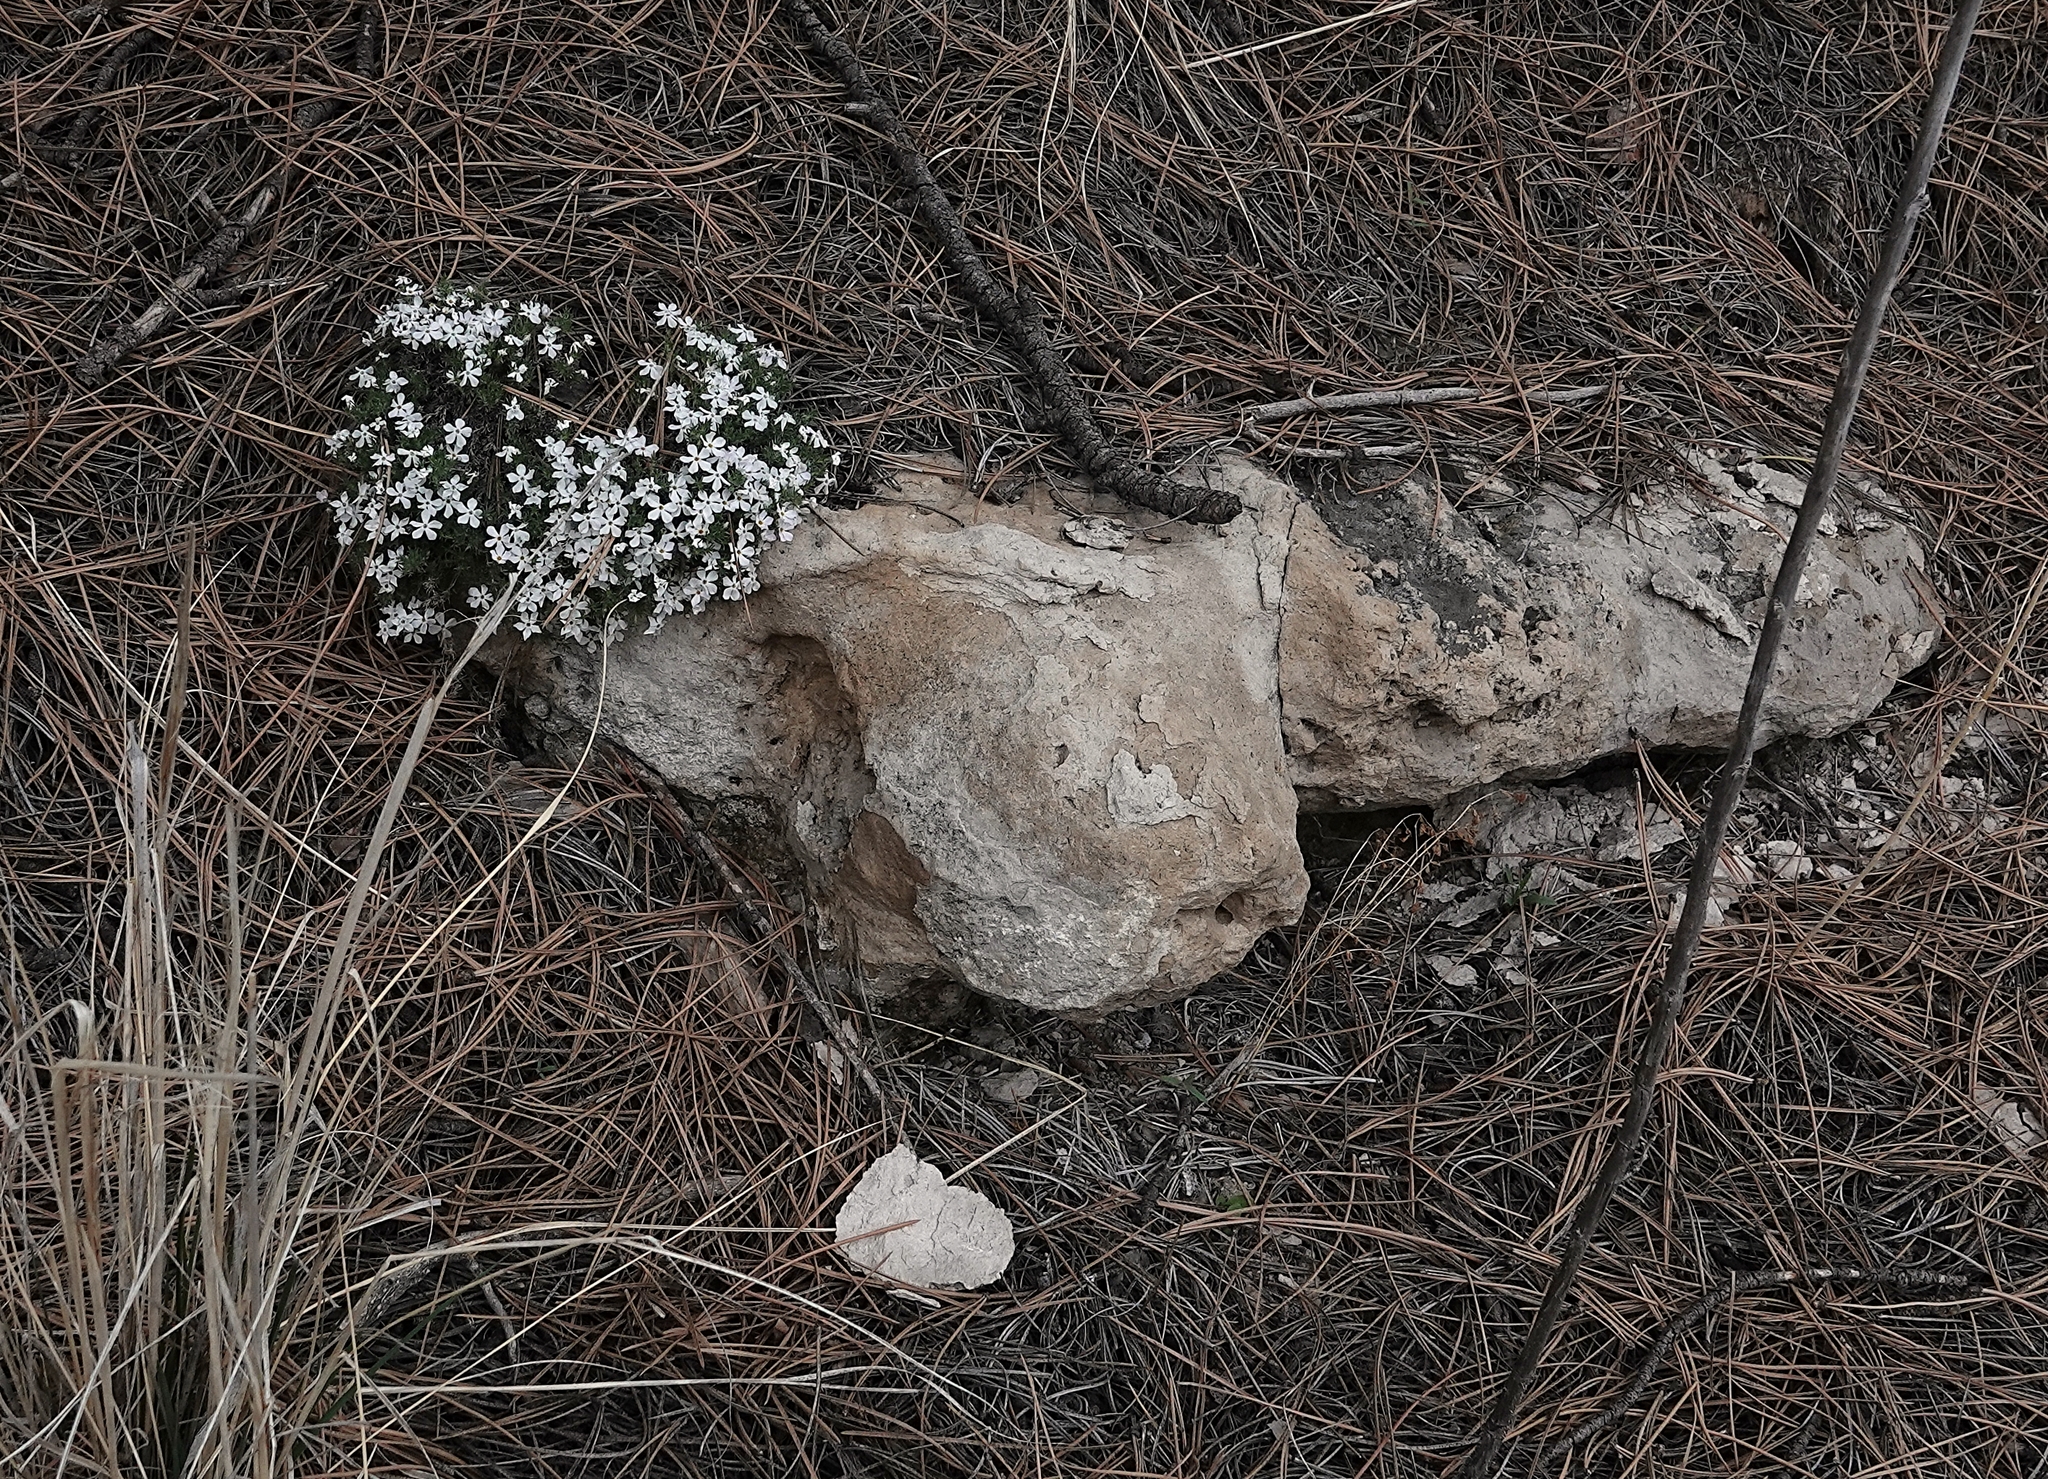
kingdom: Plantae
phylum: Tracheophyta
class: Magnoliopsida
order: Ericales
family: Polemoniaceae
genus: Phlox
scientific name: Phlox hoodii
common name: Moss phlox
